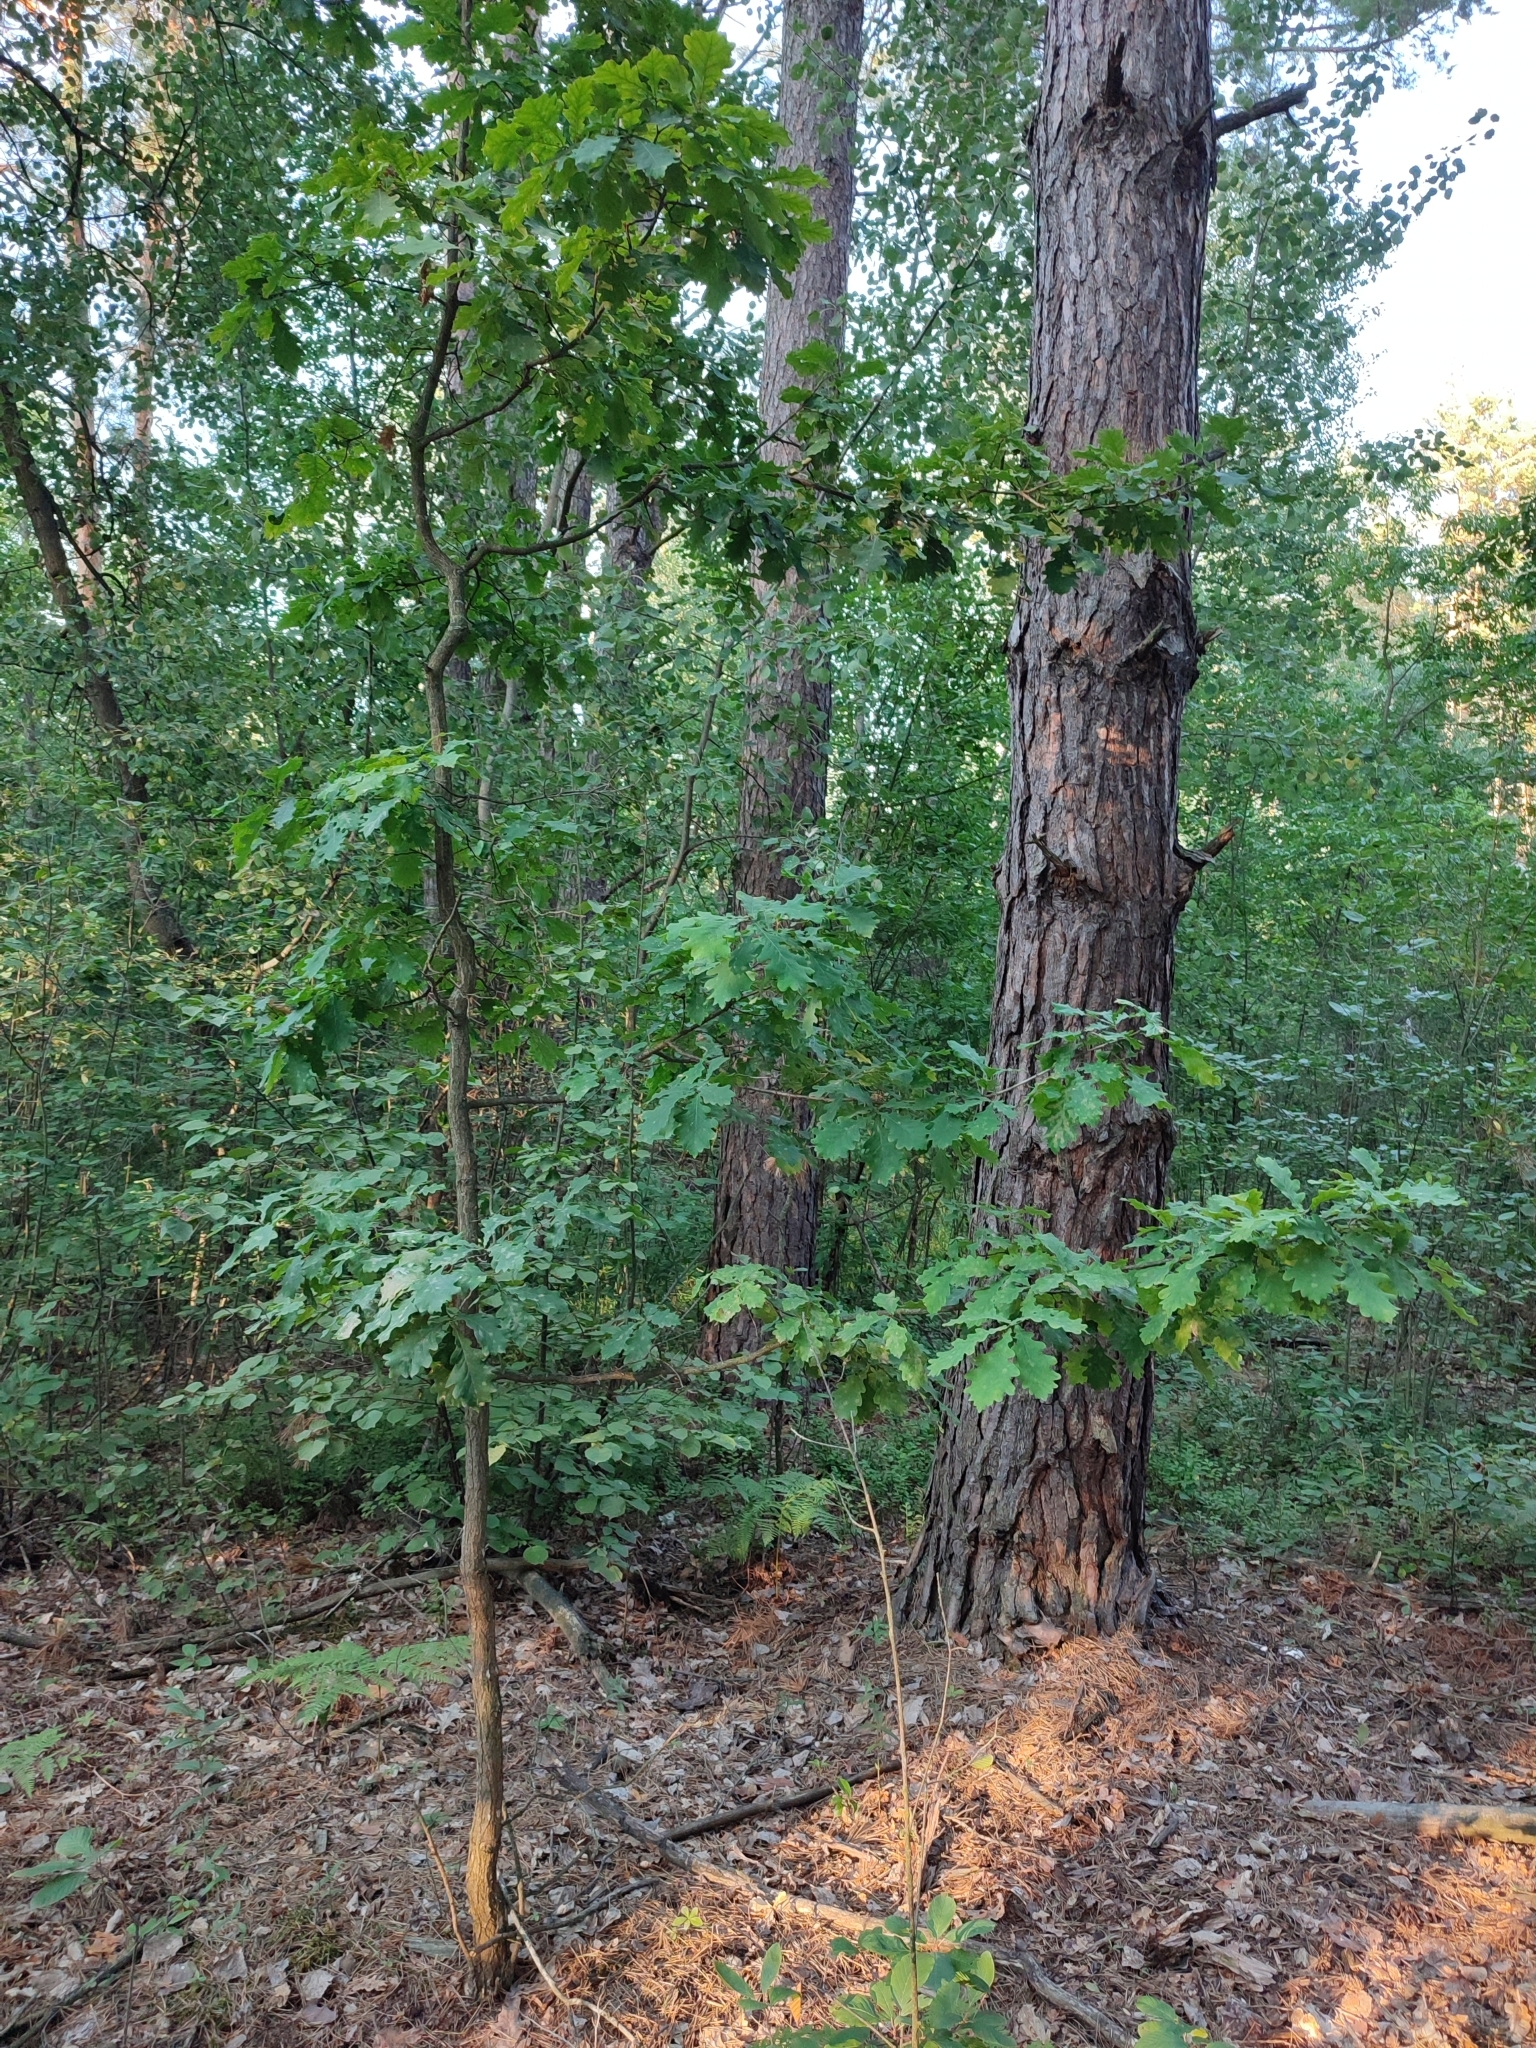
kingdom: Plantae
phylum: Tracheophyta
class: Magnoliopsida
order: Fagales
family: Fagaceae
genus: Quercus
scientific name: Quercus robur
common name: Pedunculate oak
